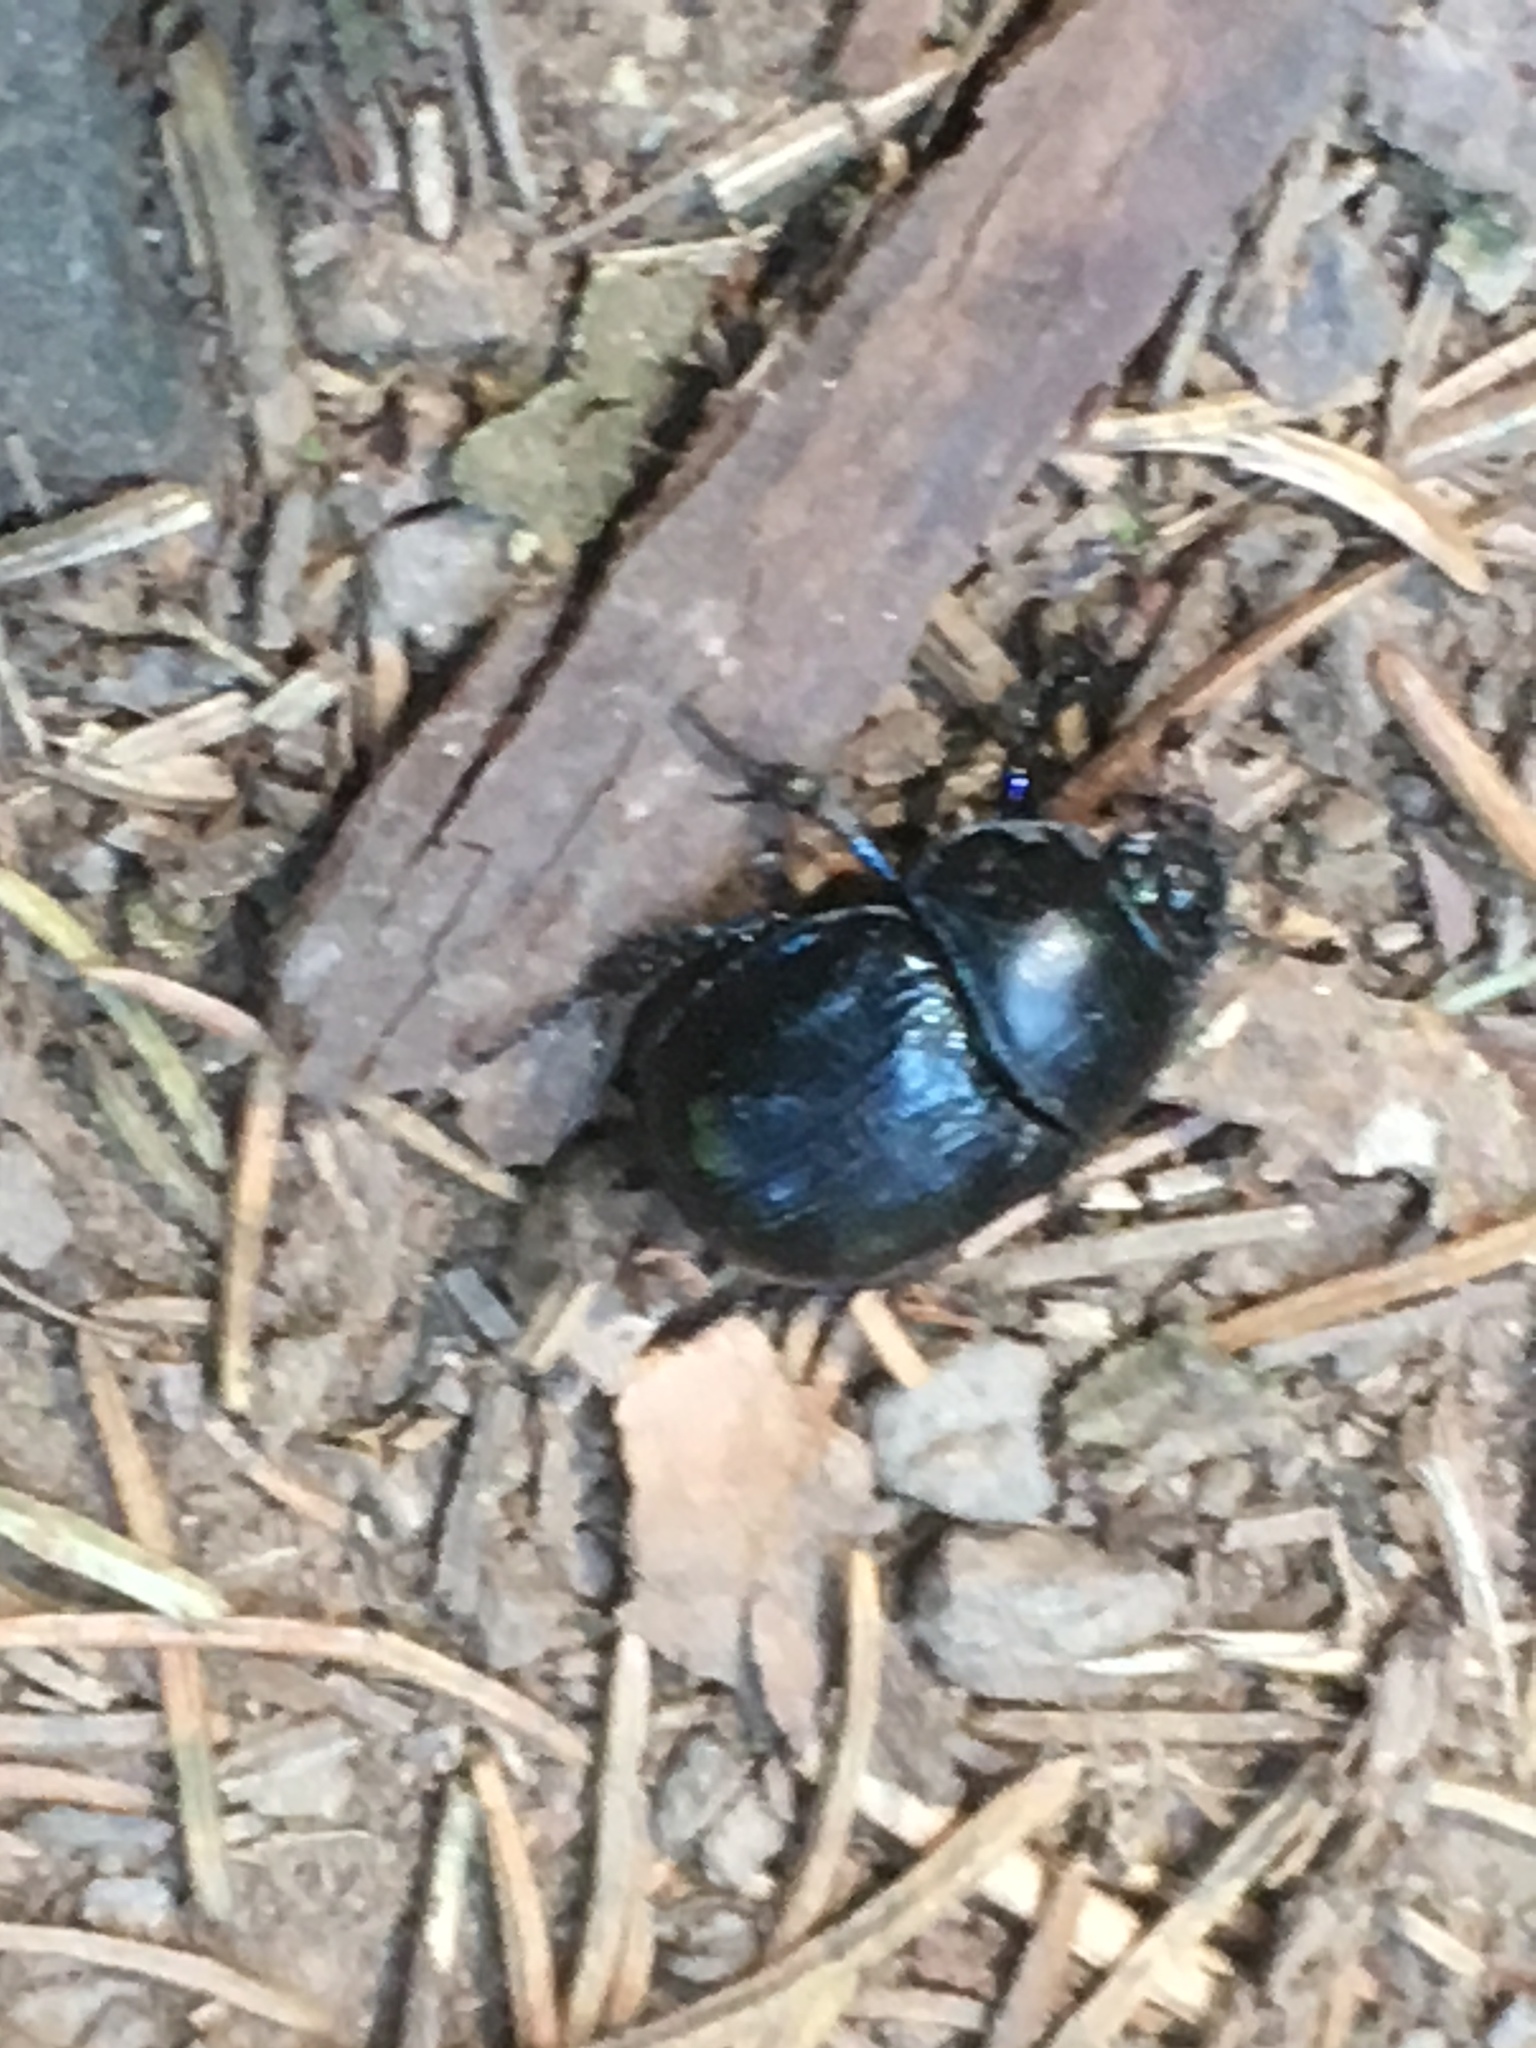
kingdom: Animalia
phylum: Arthropoda
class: Insecta
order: Coleoptera
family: Geotrupidae
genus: Anoplotrupes
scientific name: Anoplotrupes stercorosus
